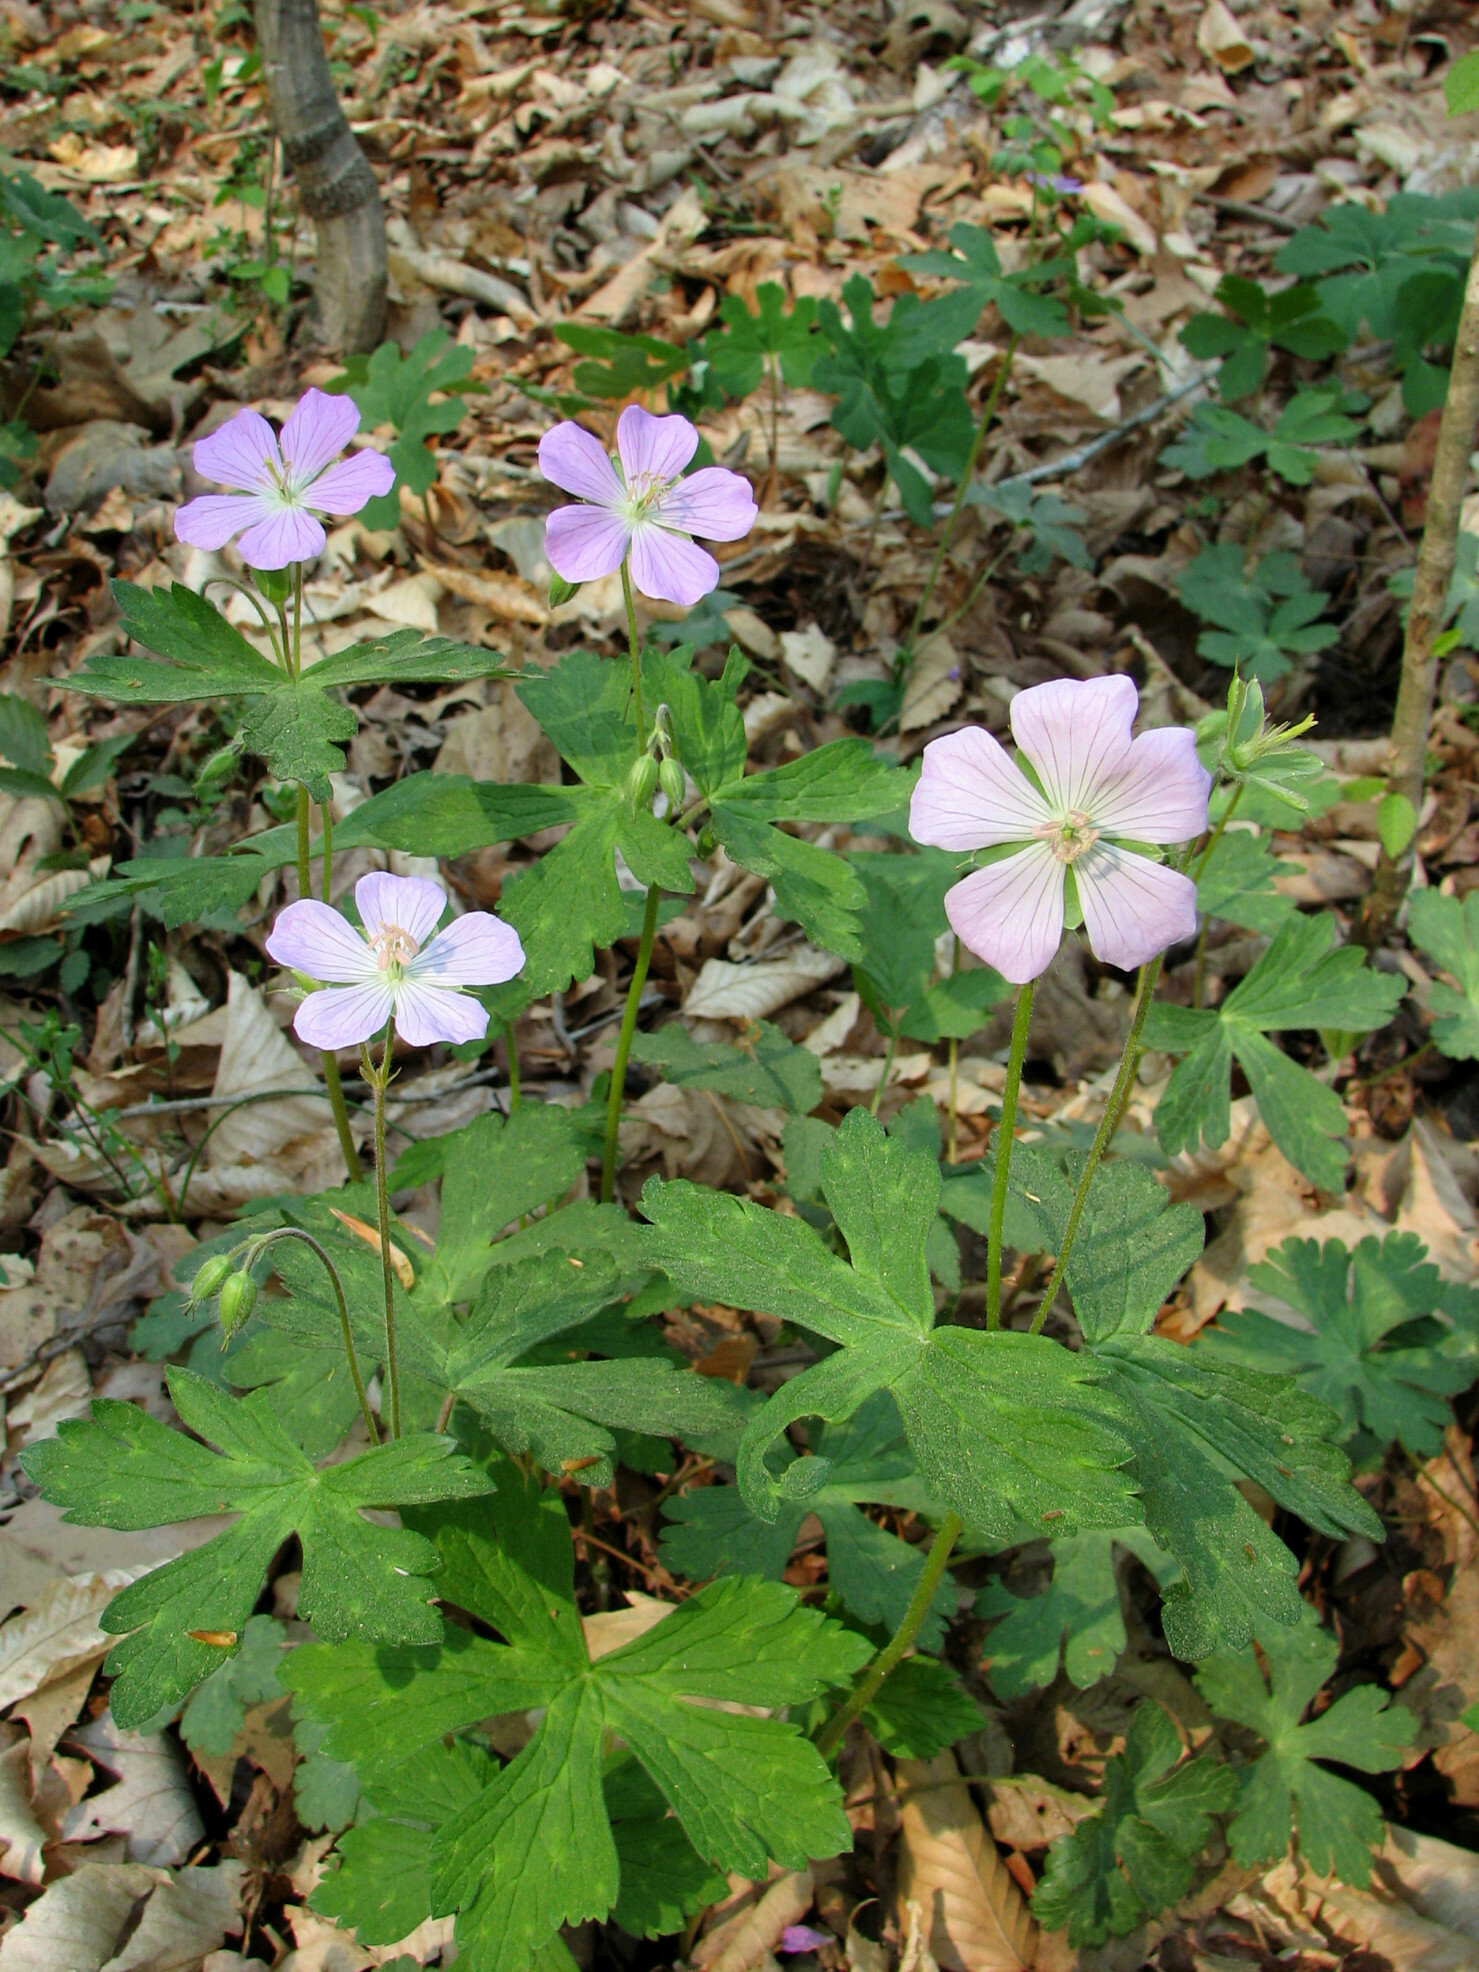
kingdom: Plantae
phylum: Tracheophyta
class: Magnoliopsida
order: Geraniales
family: Geraniaceae
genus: Geranium
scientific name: Geranium maculatum
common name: Spotted geranium
